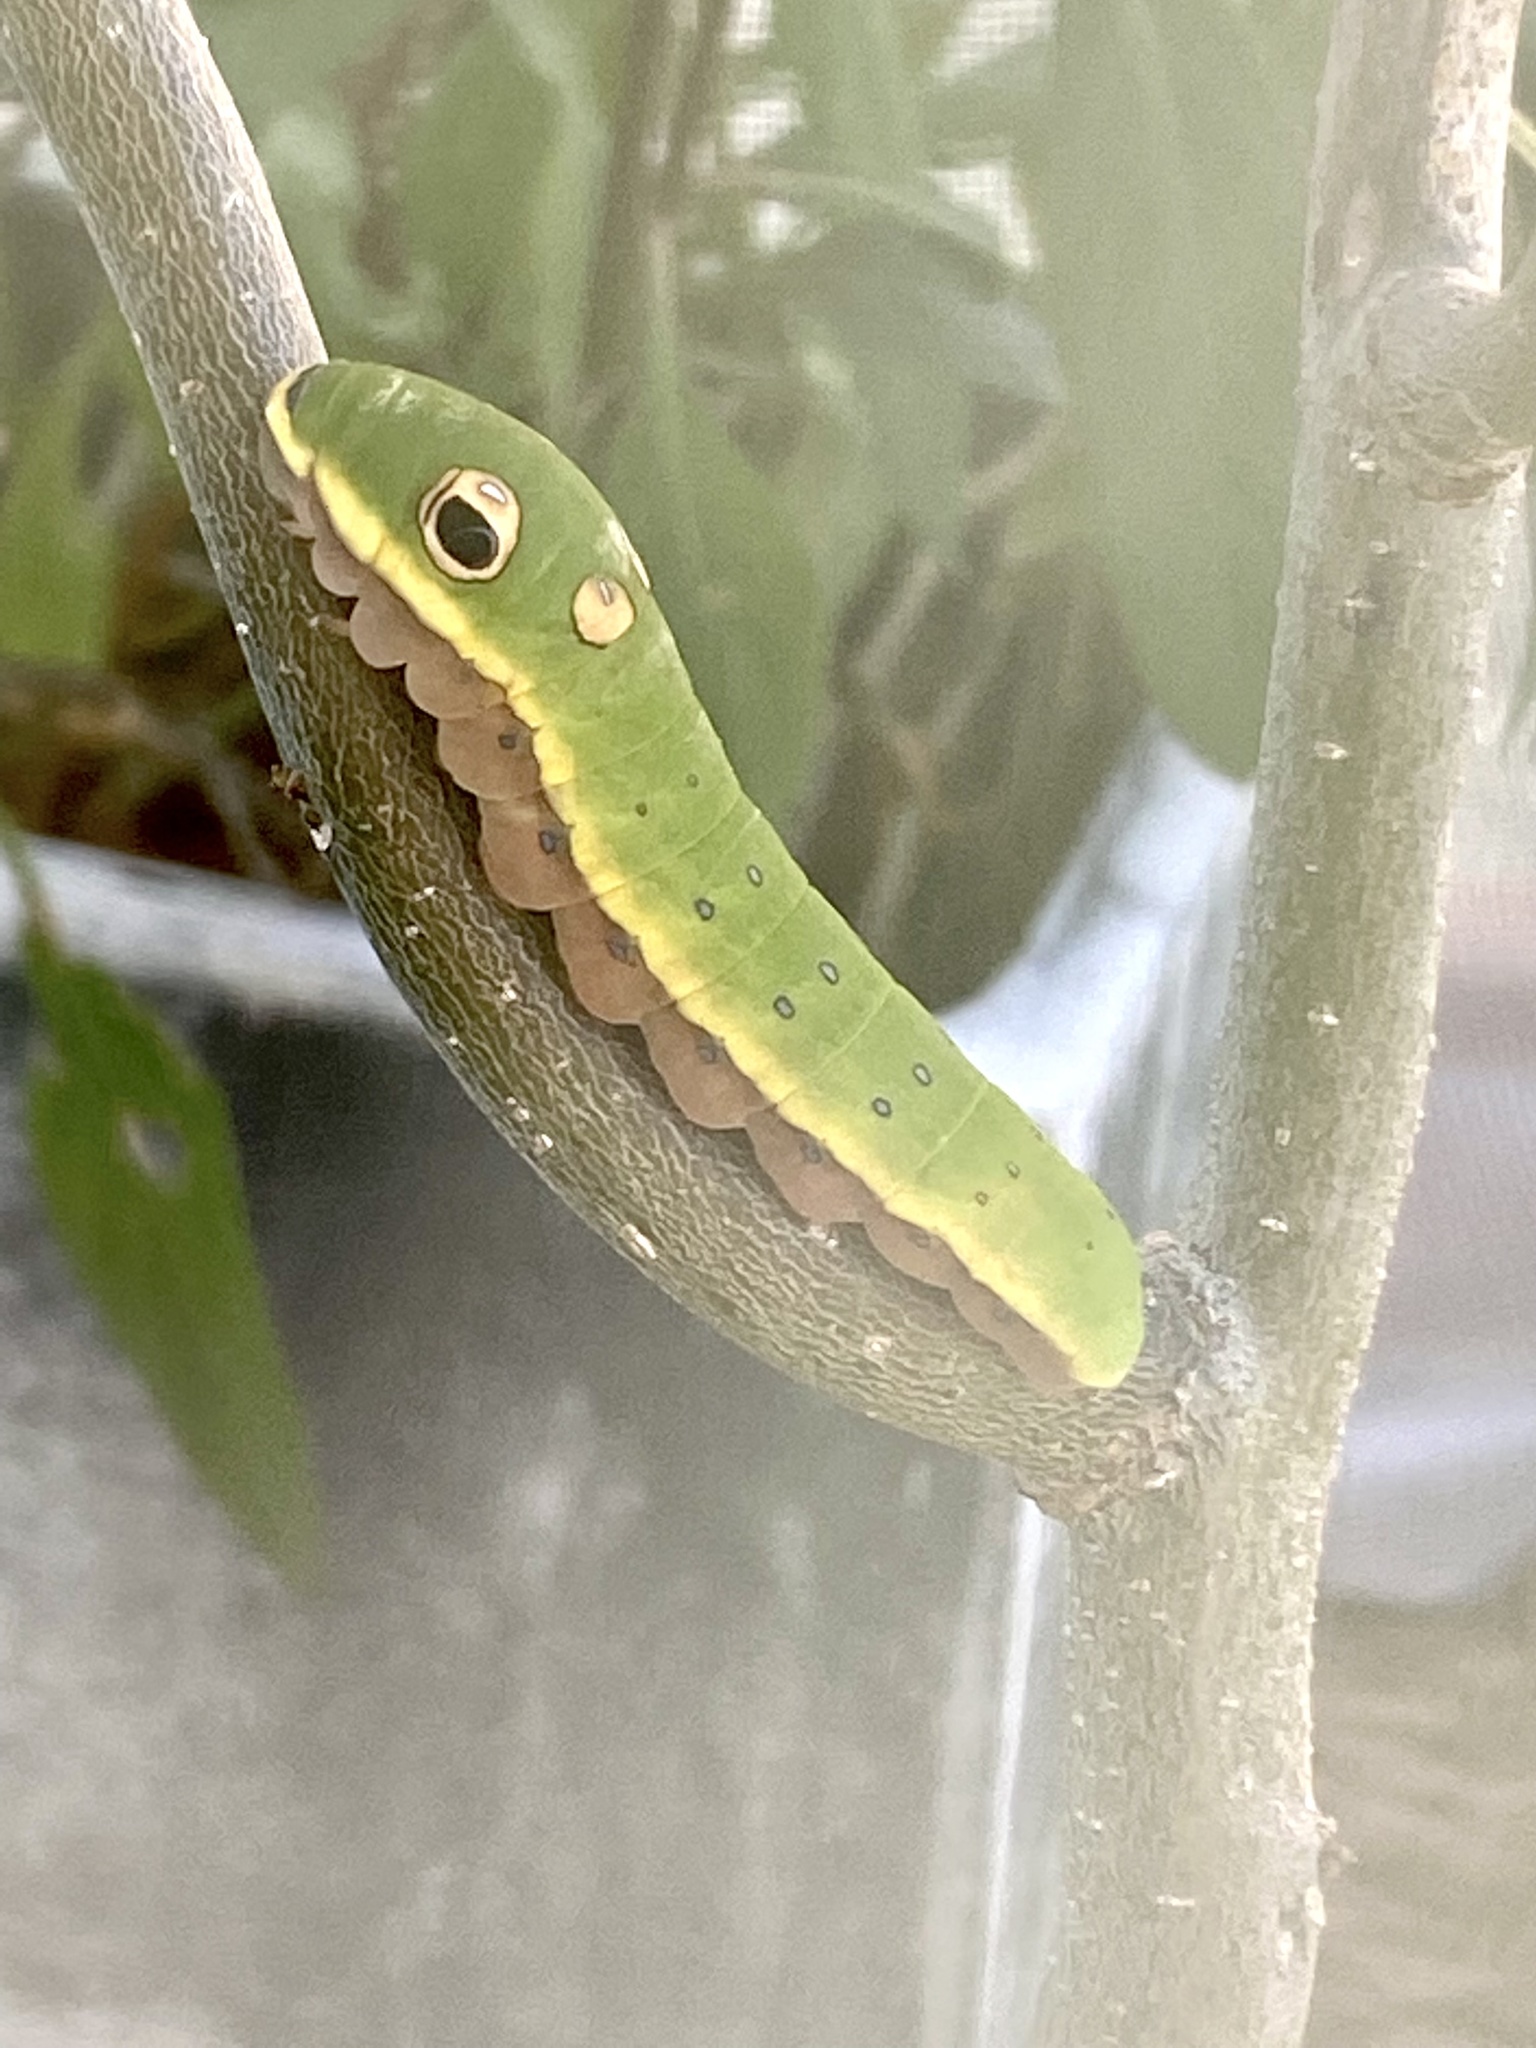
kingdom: Animalia
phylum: Arthropoda
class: Insecta
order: Lepidoptera
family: Papilionidae
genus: Papilio
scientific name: Papilio troilus
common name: Spicebush swallowtail
